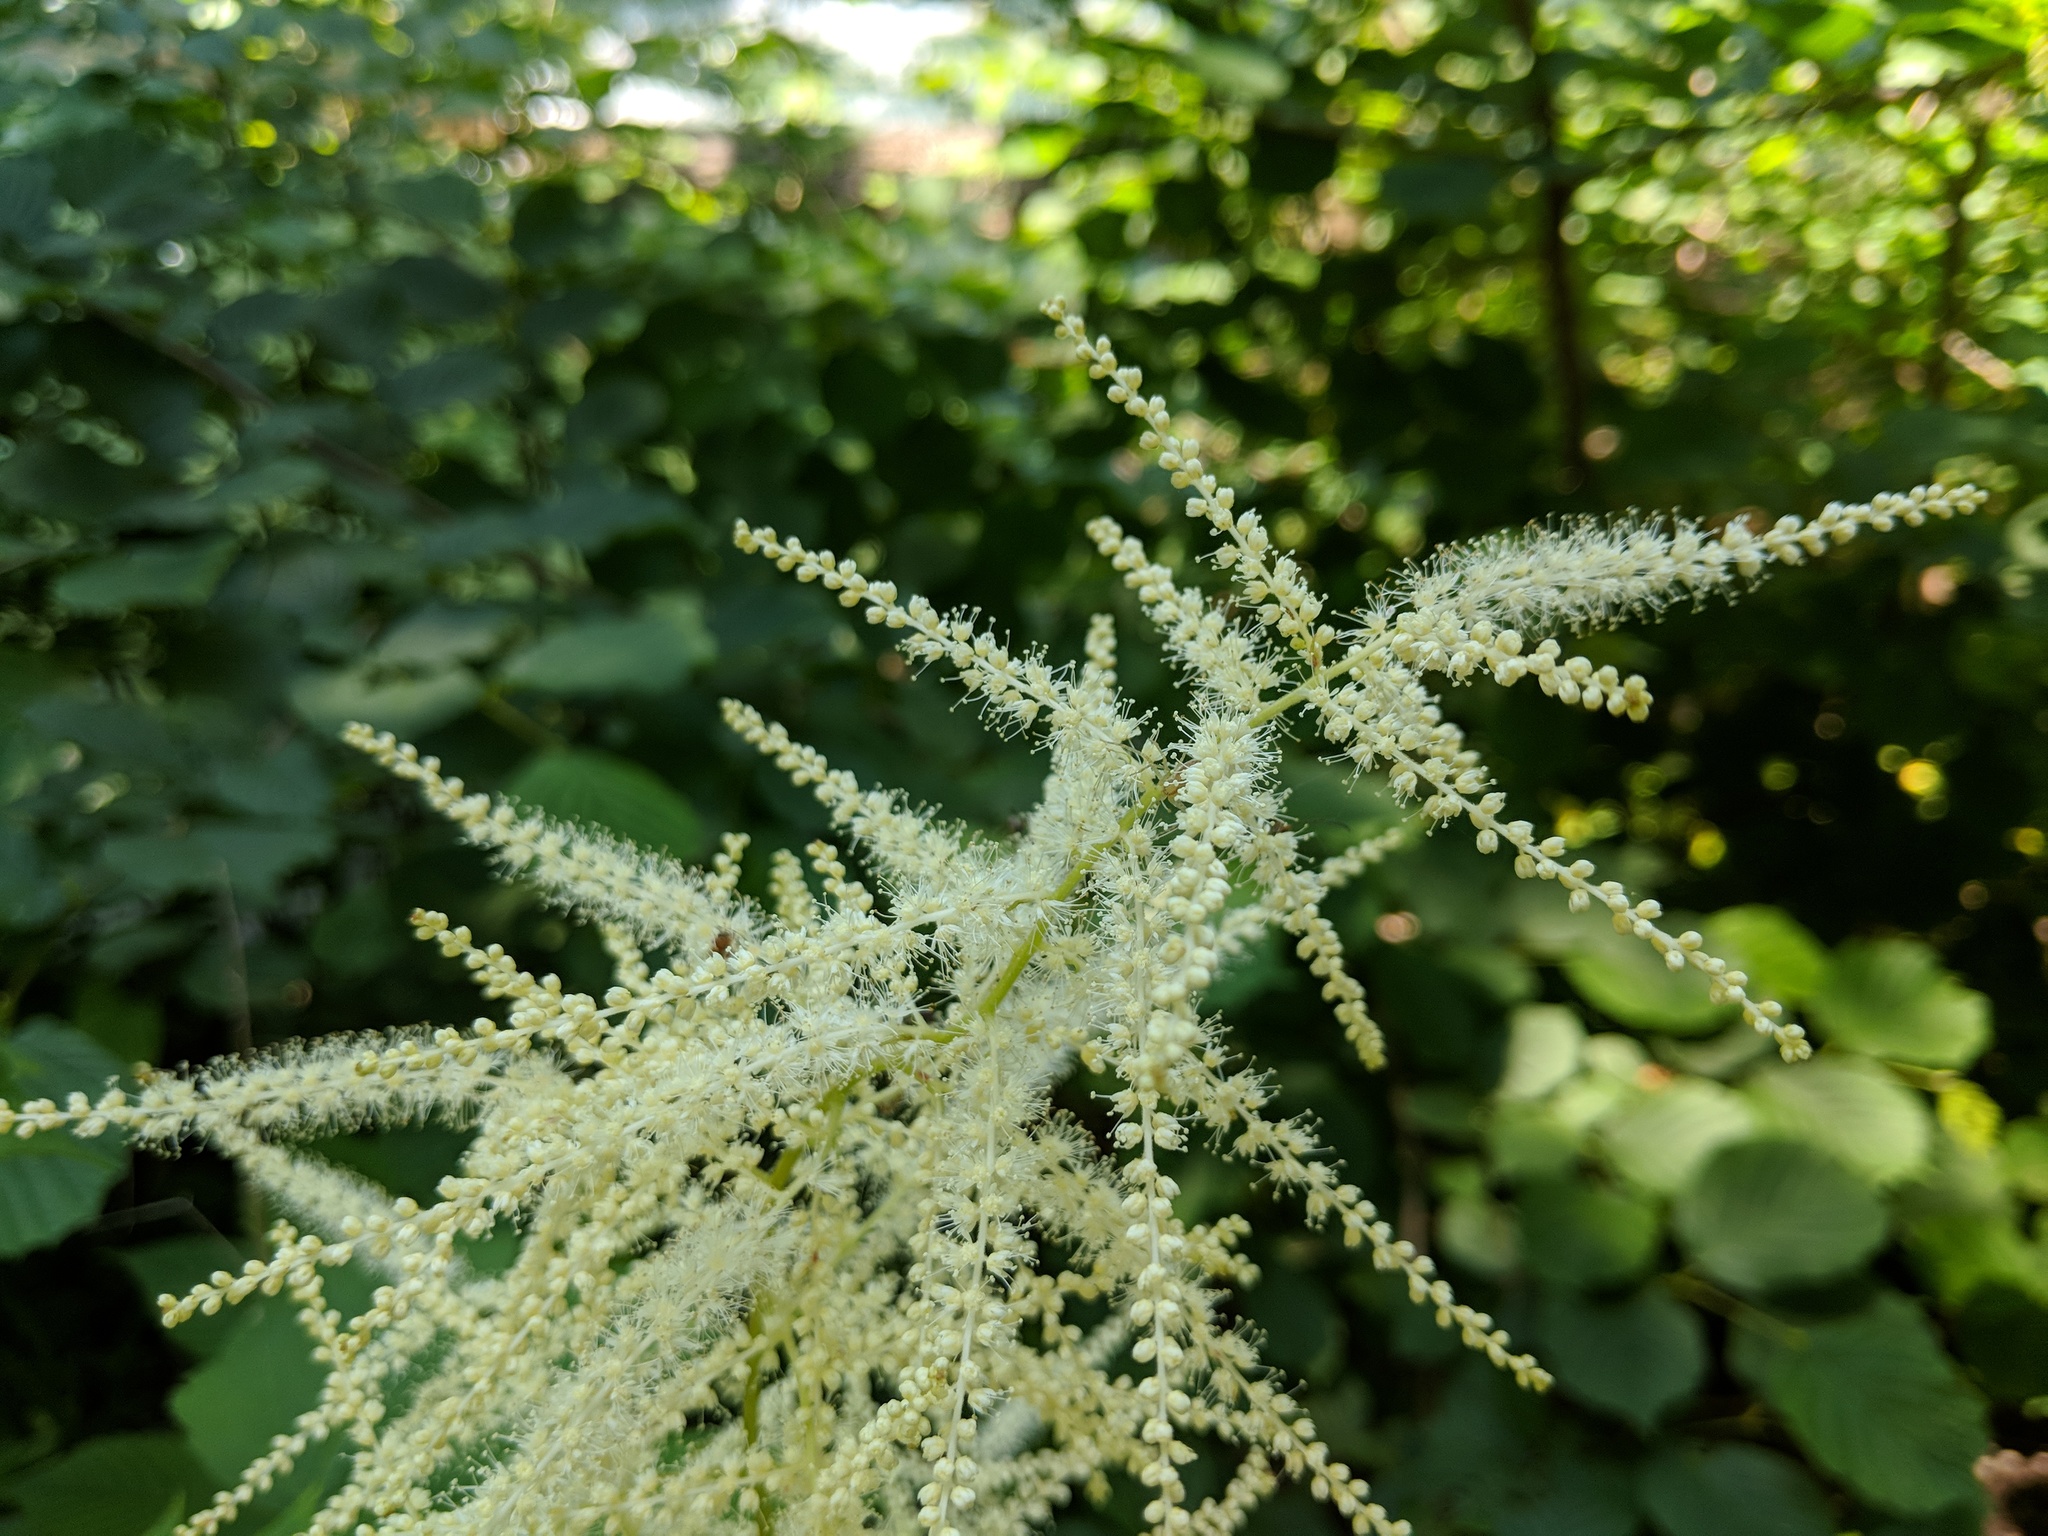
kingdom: Plantae
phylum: Tracheophyta
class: Magnoliopsida
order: Rosales
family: Rosaceae
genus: Aruncus
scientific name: Aruncus dioicus
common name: Buck's-beard
